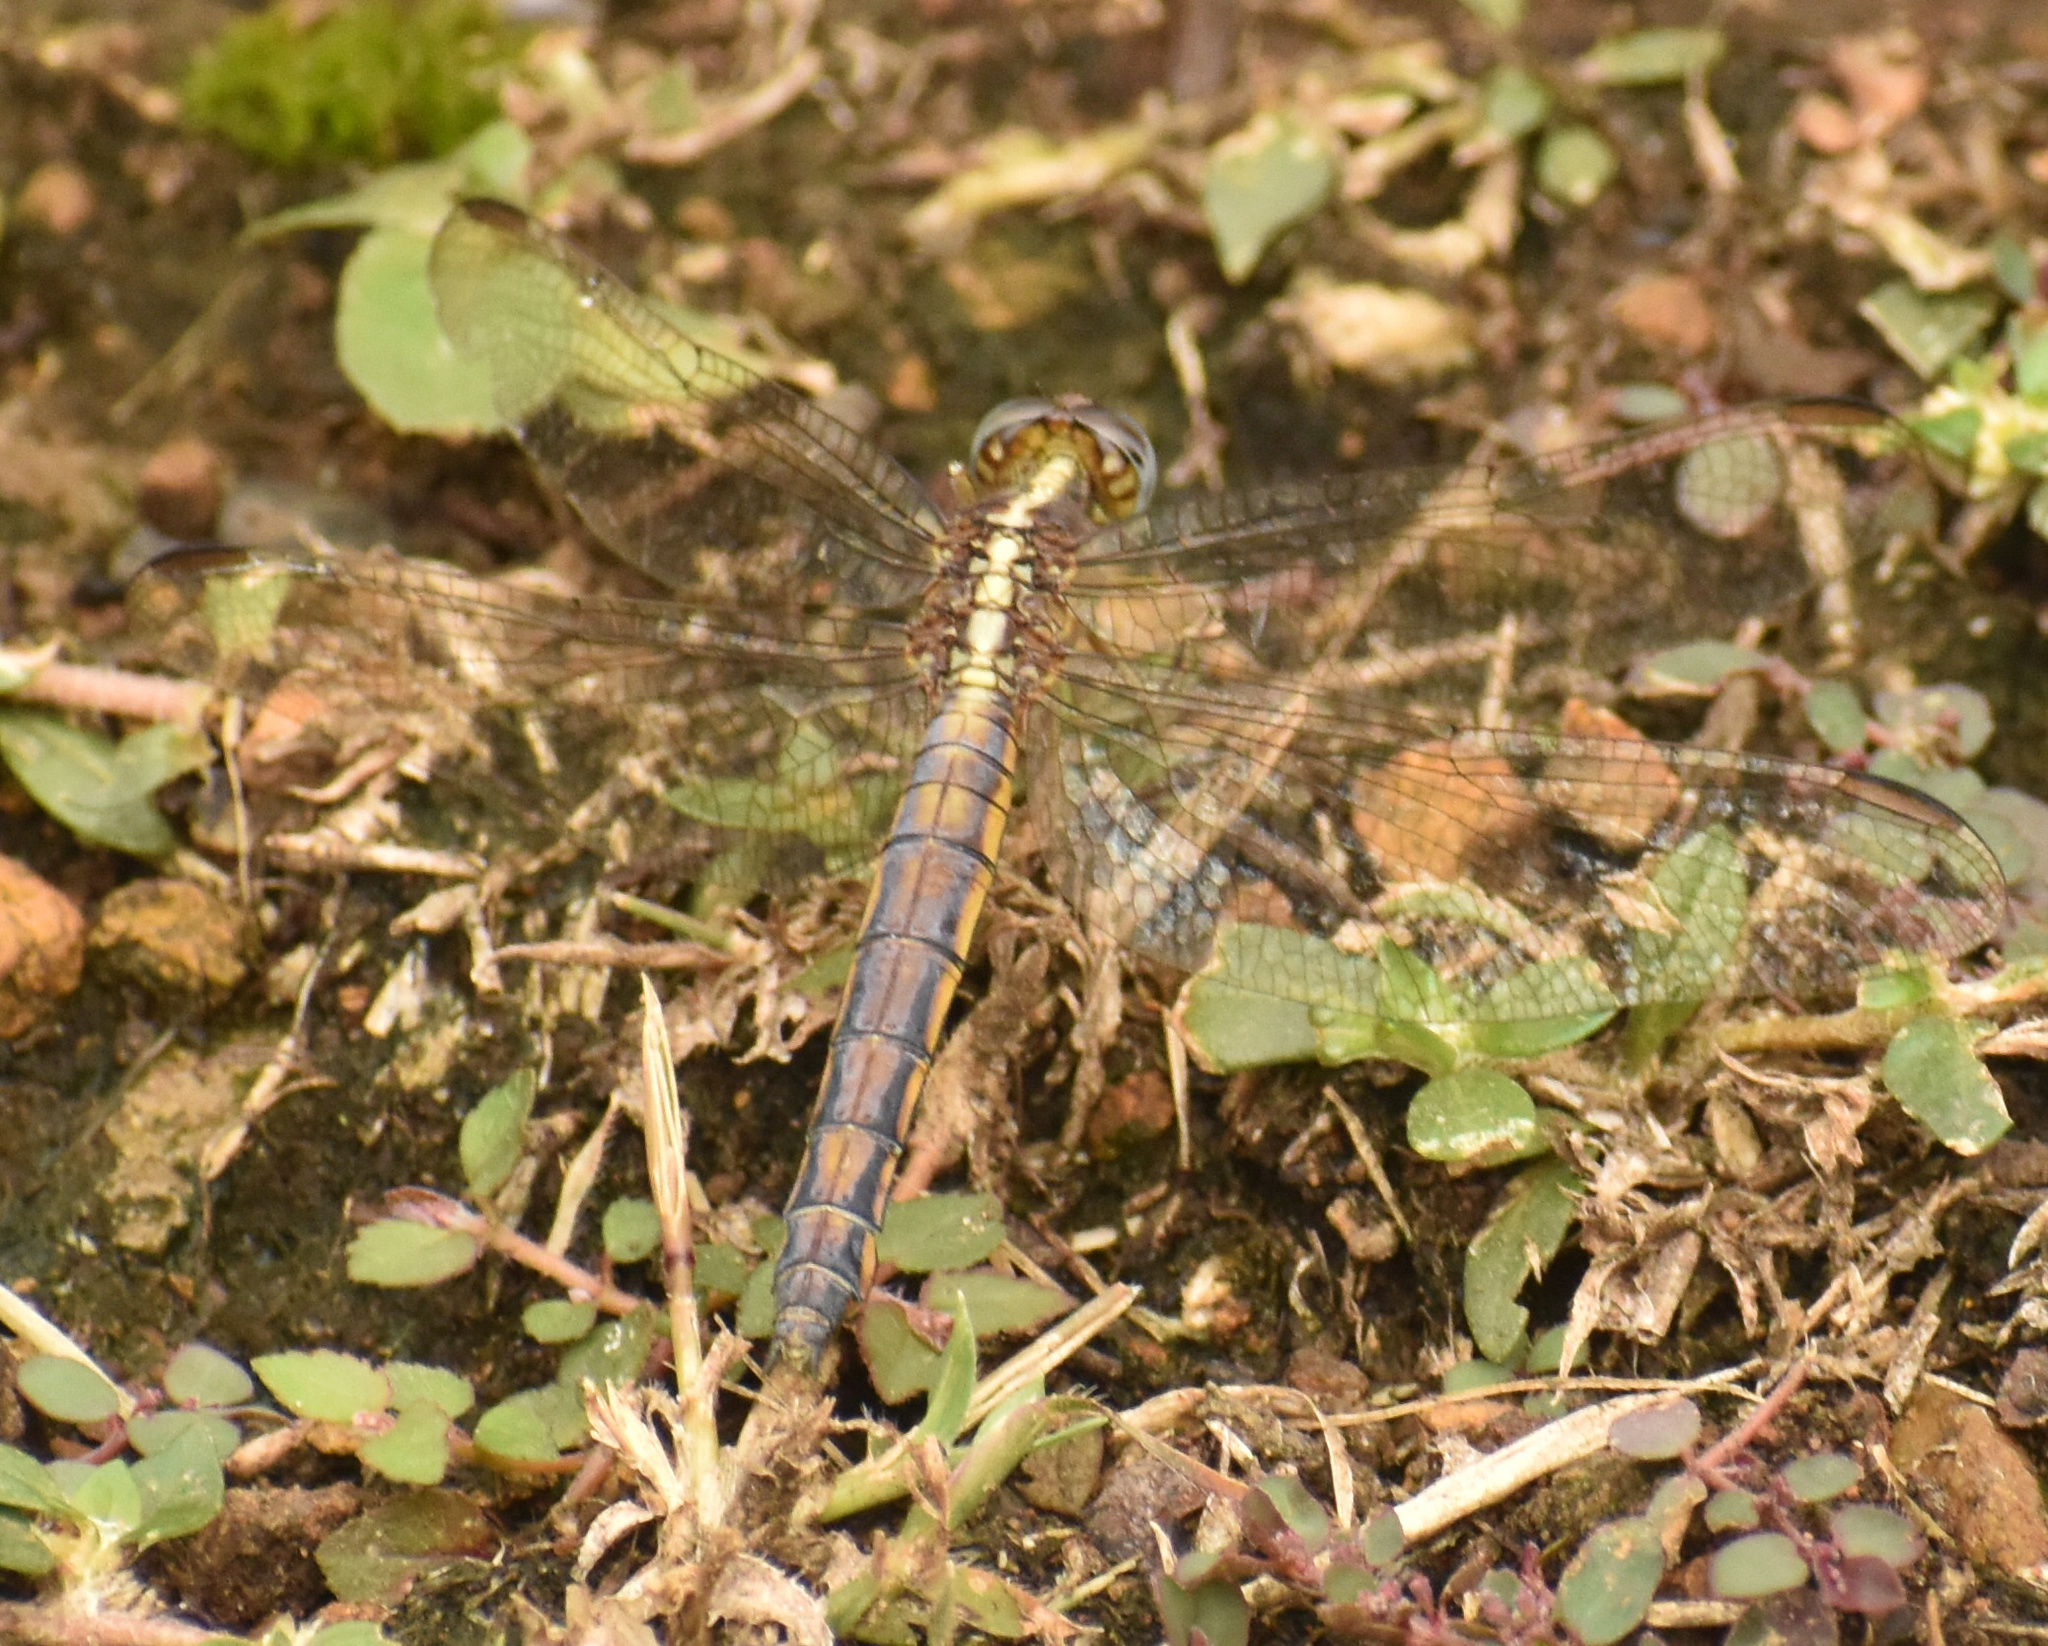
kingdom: Animalia
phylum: Arthropoda
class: Insecta
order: Odonata
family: Libellulidae
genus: Nesciothemis
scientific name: Nesciothemis farinosa
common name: Eastern blacktail
